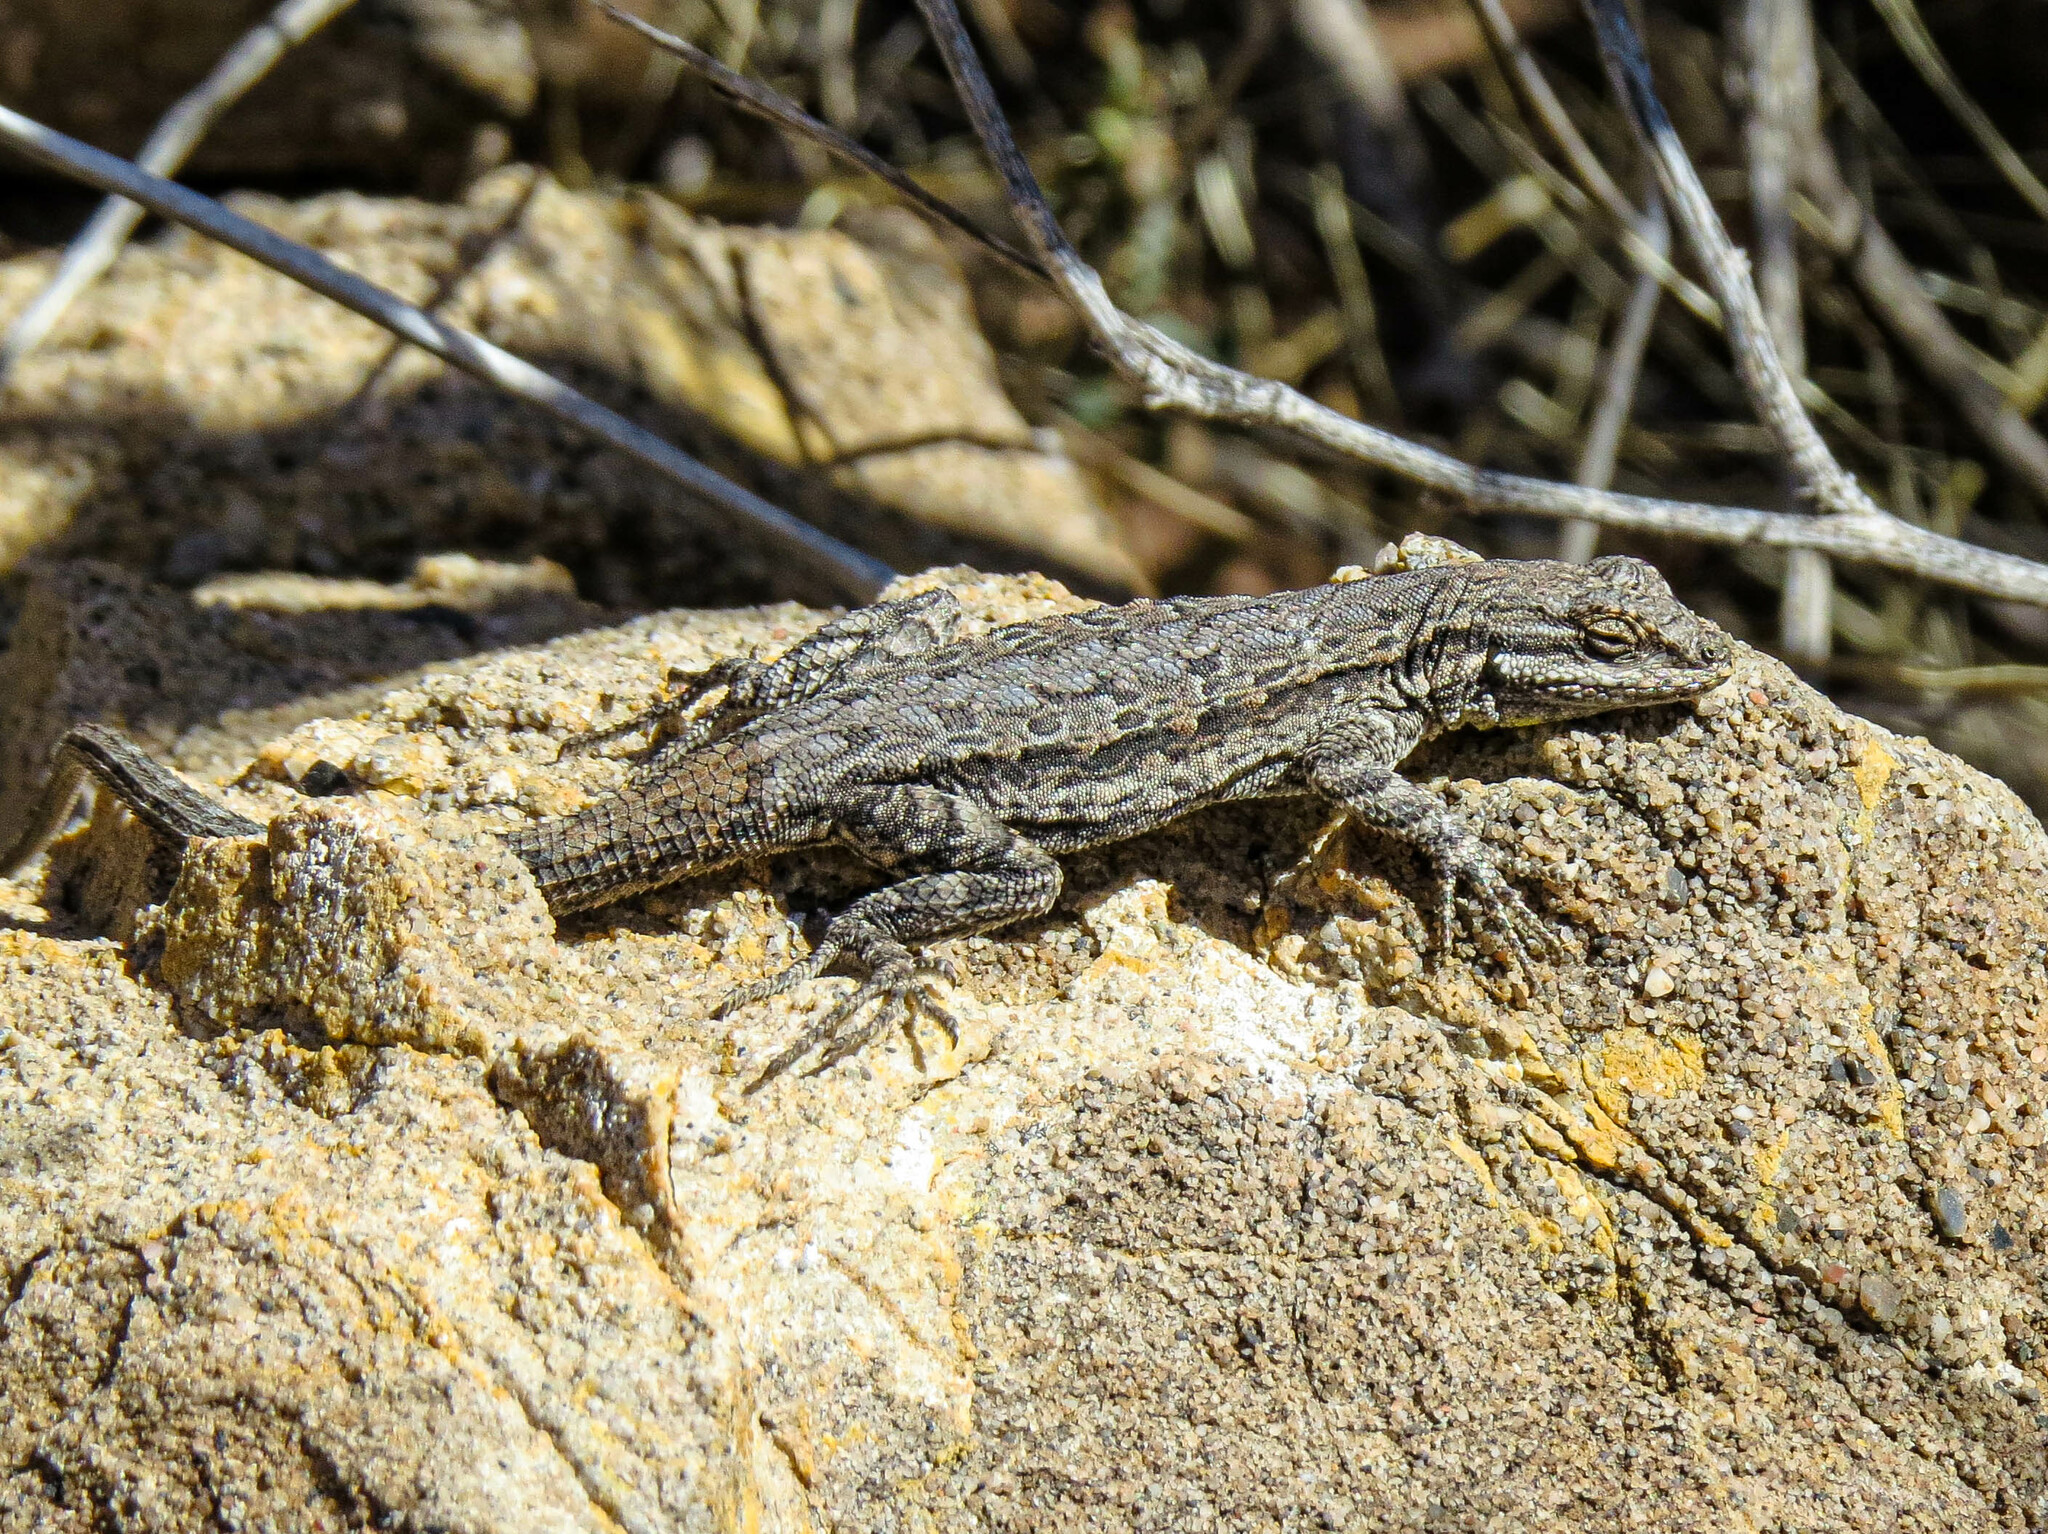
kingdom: Animalia
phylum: Chordata
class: Squamata
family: Phrynosomatidae
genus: Urosaurus
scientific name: Urosaurus ornatus
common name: Ornate tree lizard
